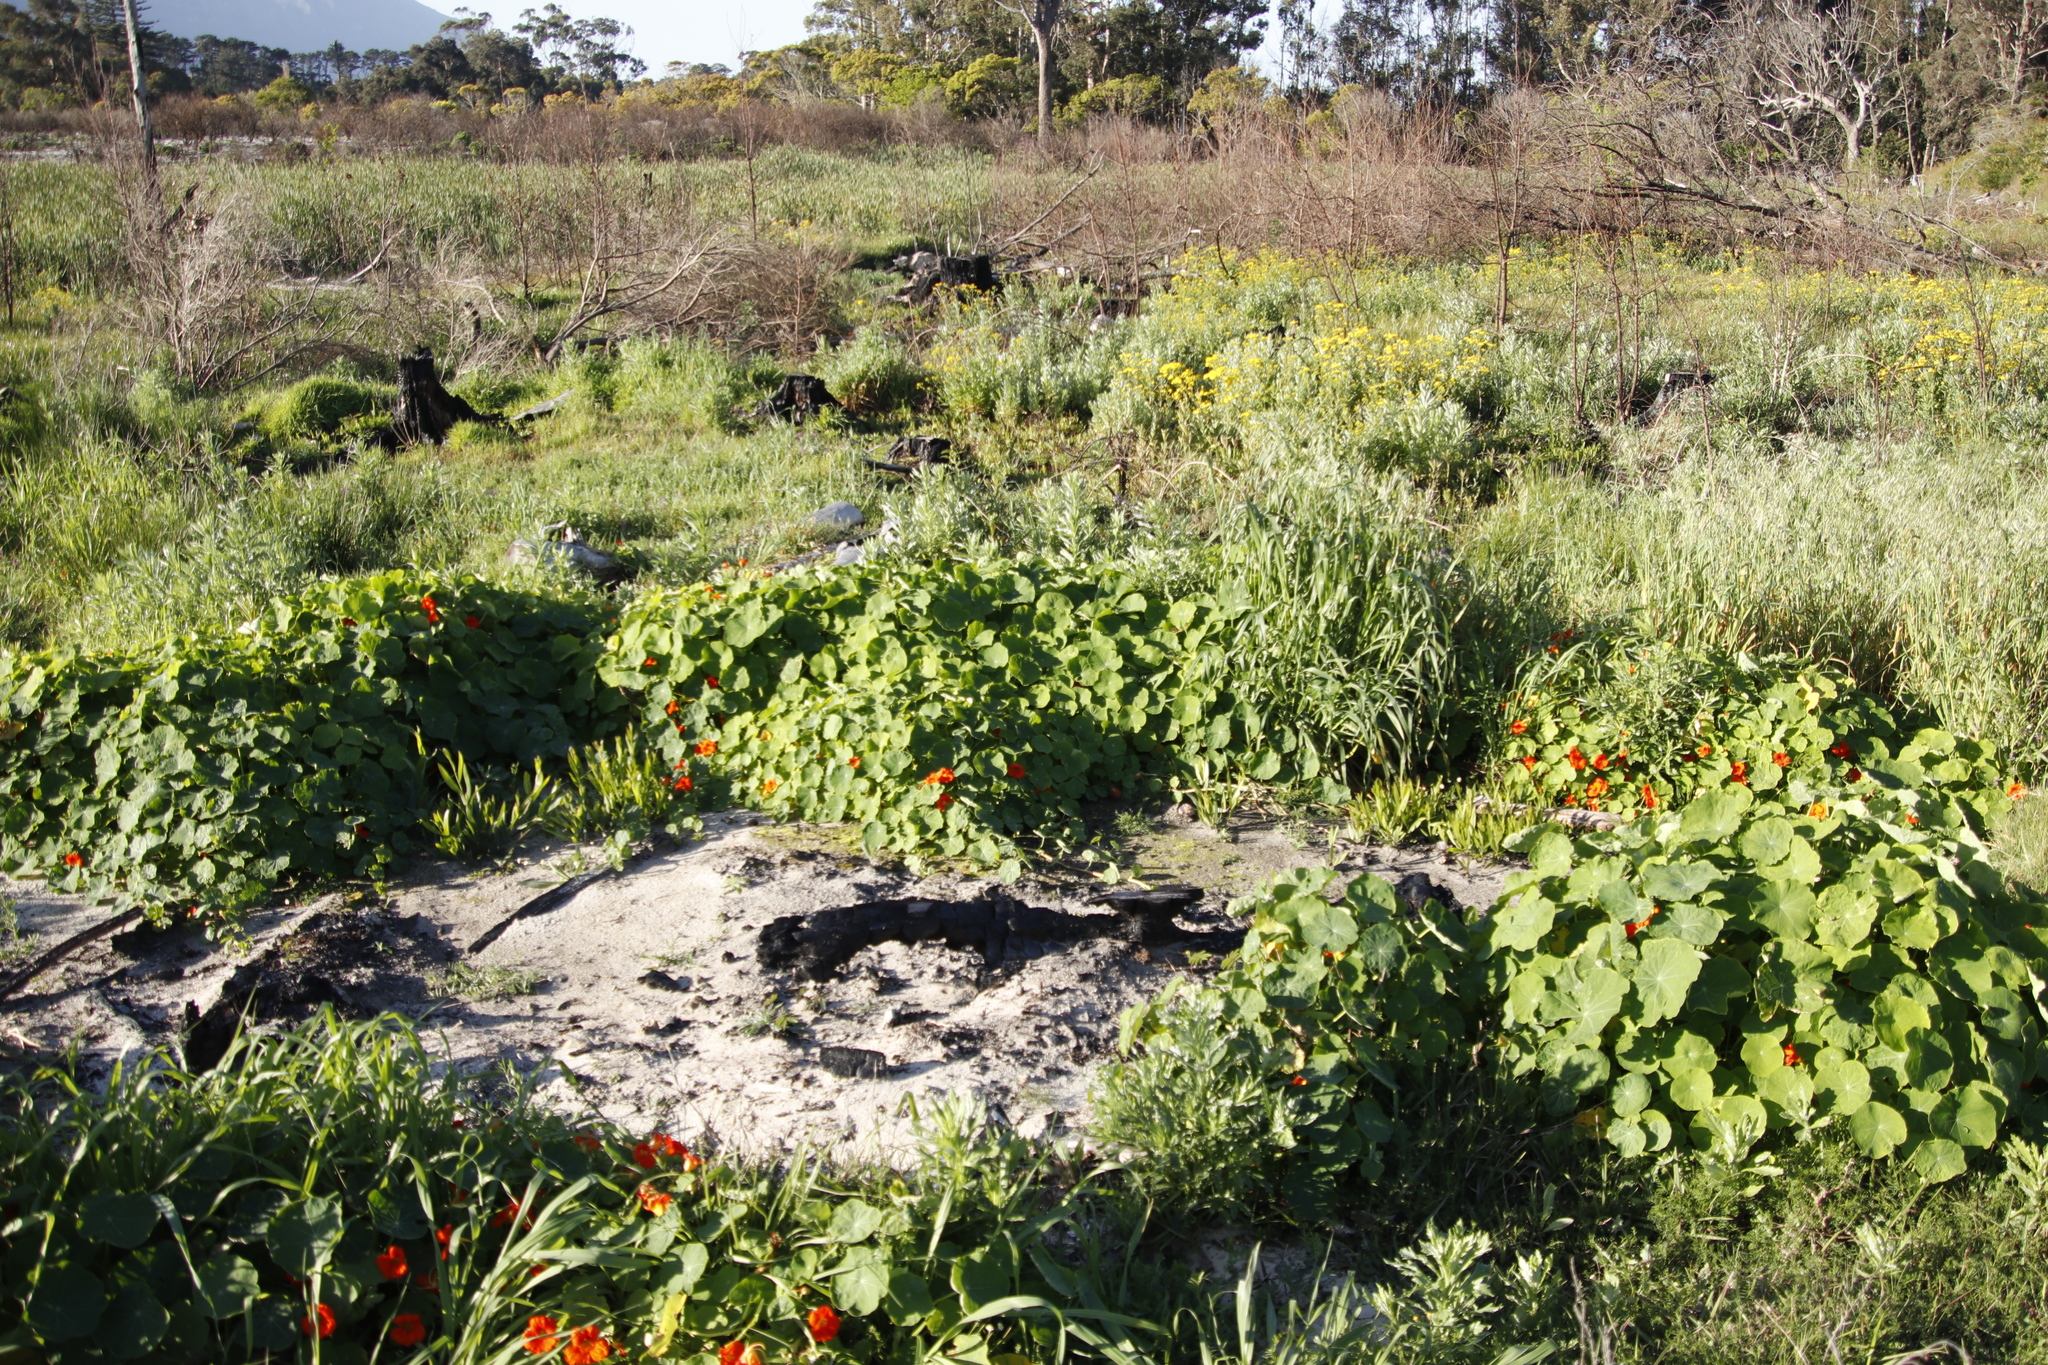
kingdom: Plantae
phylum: Tracheophyta
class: Magnoliopsida
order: Brassicales
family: Tropaeolaceae
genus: Tropaeolum
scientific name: Tropaeolum majus
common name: Nasturtium
